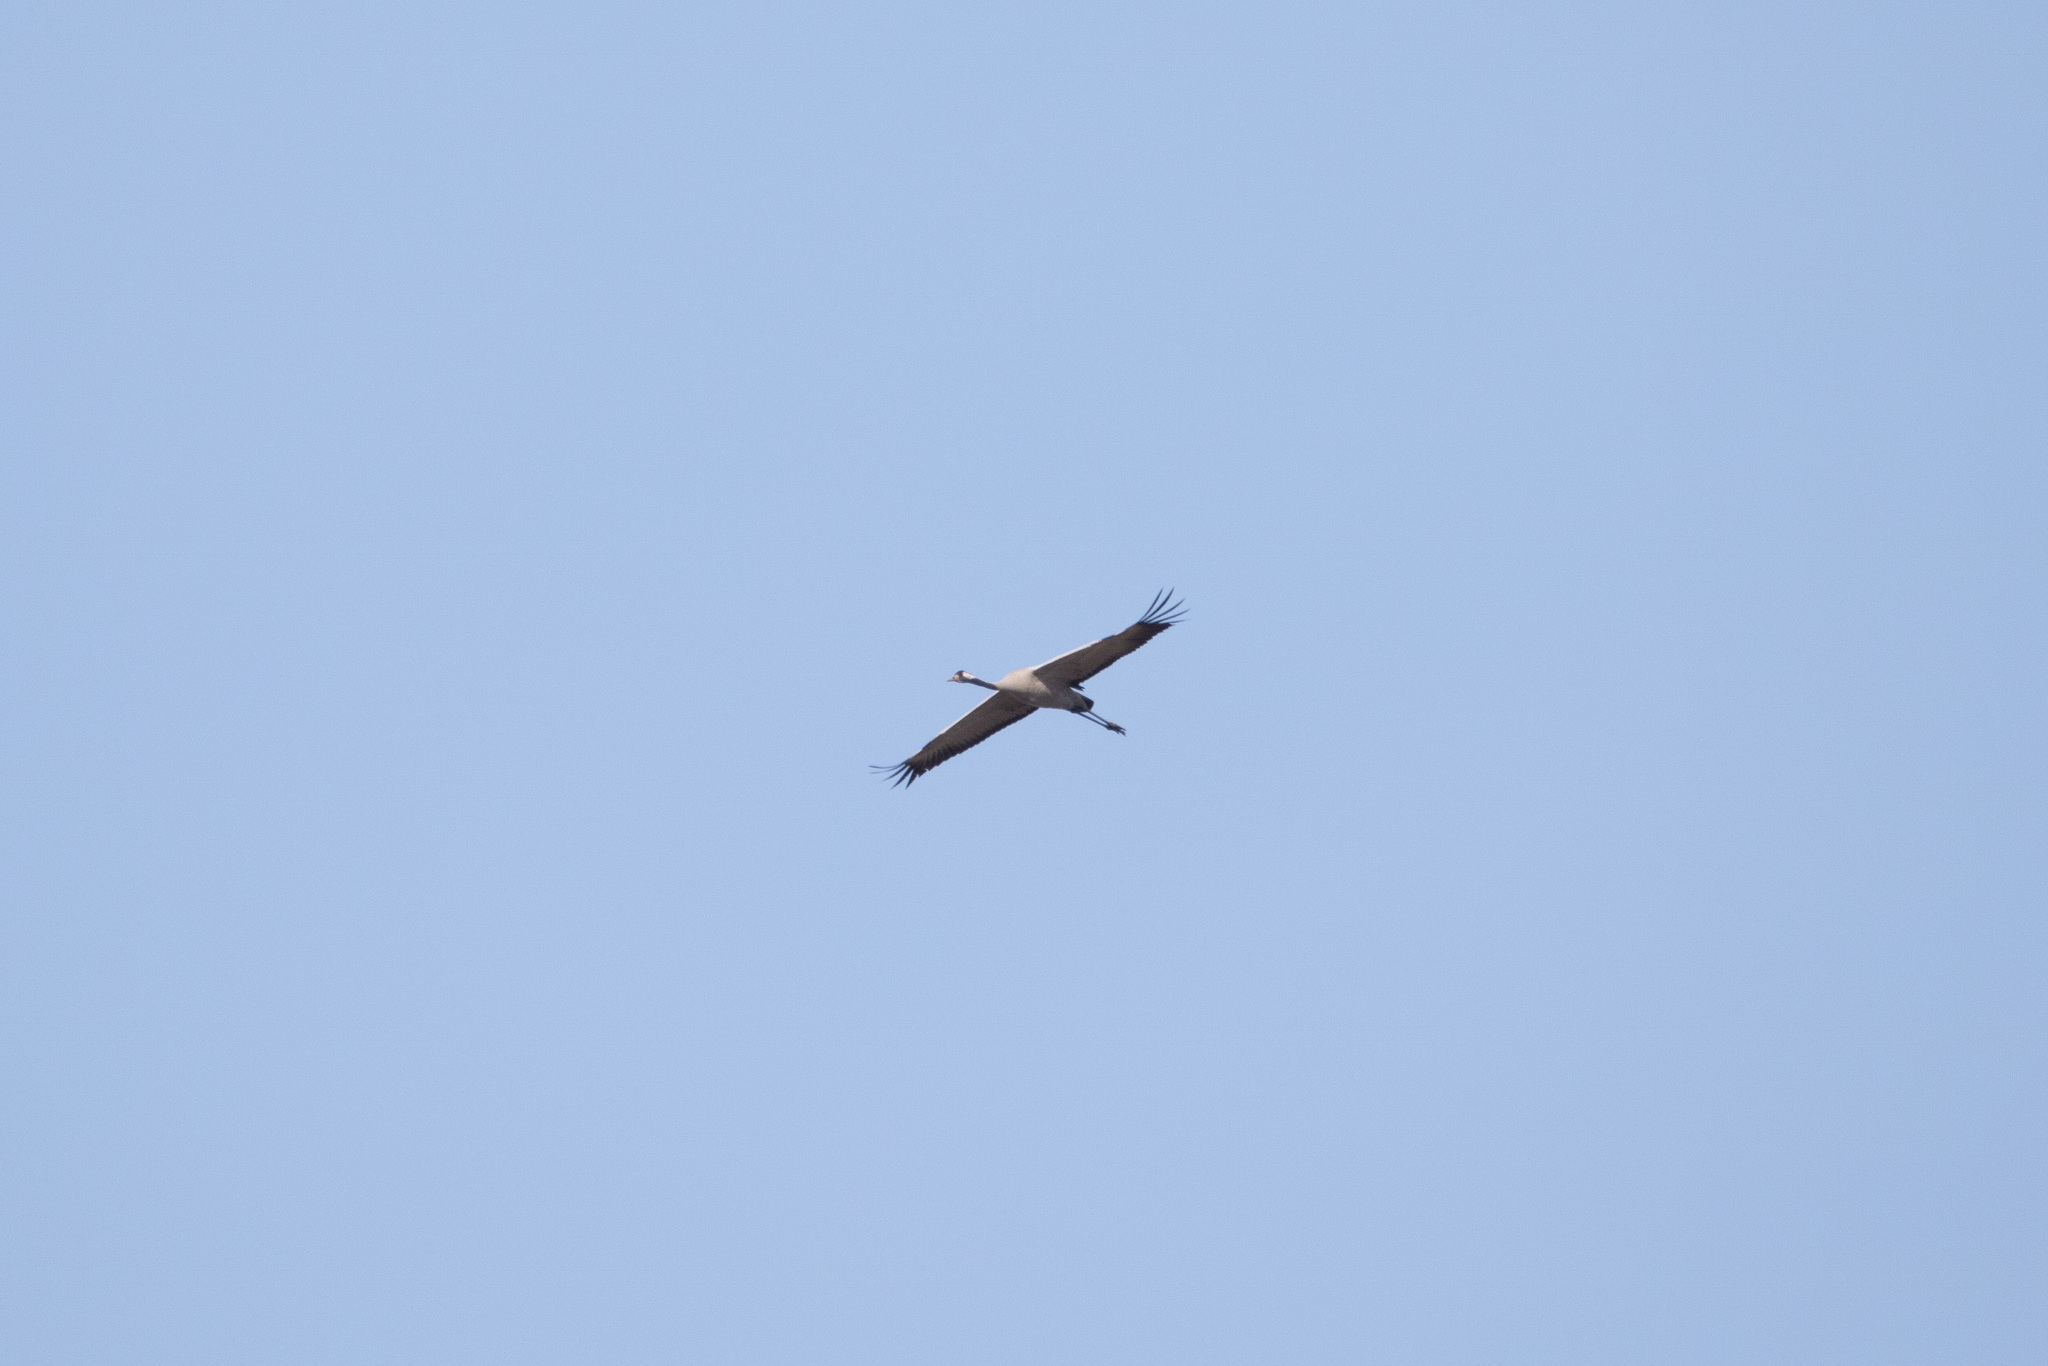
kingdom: Animalia
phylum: Chordata
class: Aves
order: Gruiformes
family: Gruidae
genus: Grus
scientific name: Grus grus
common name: Common crane
